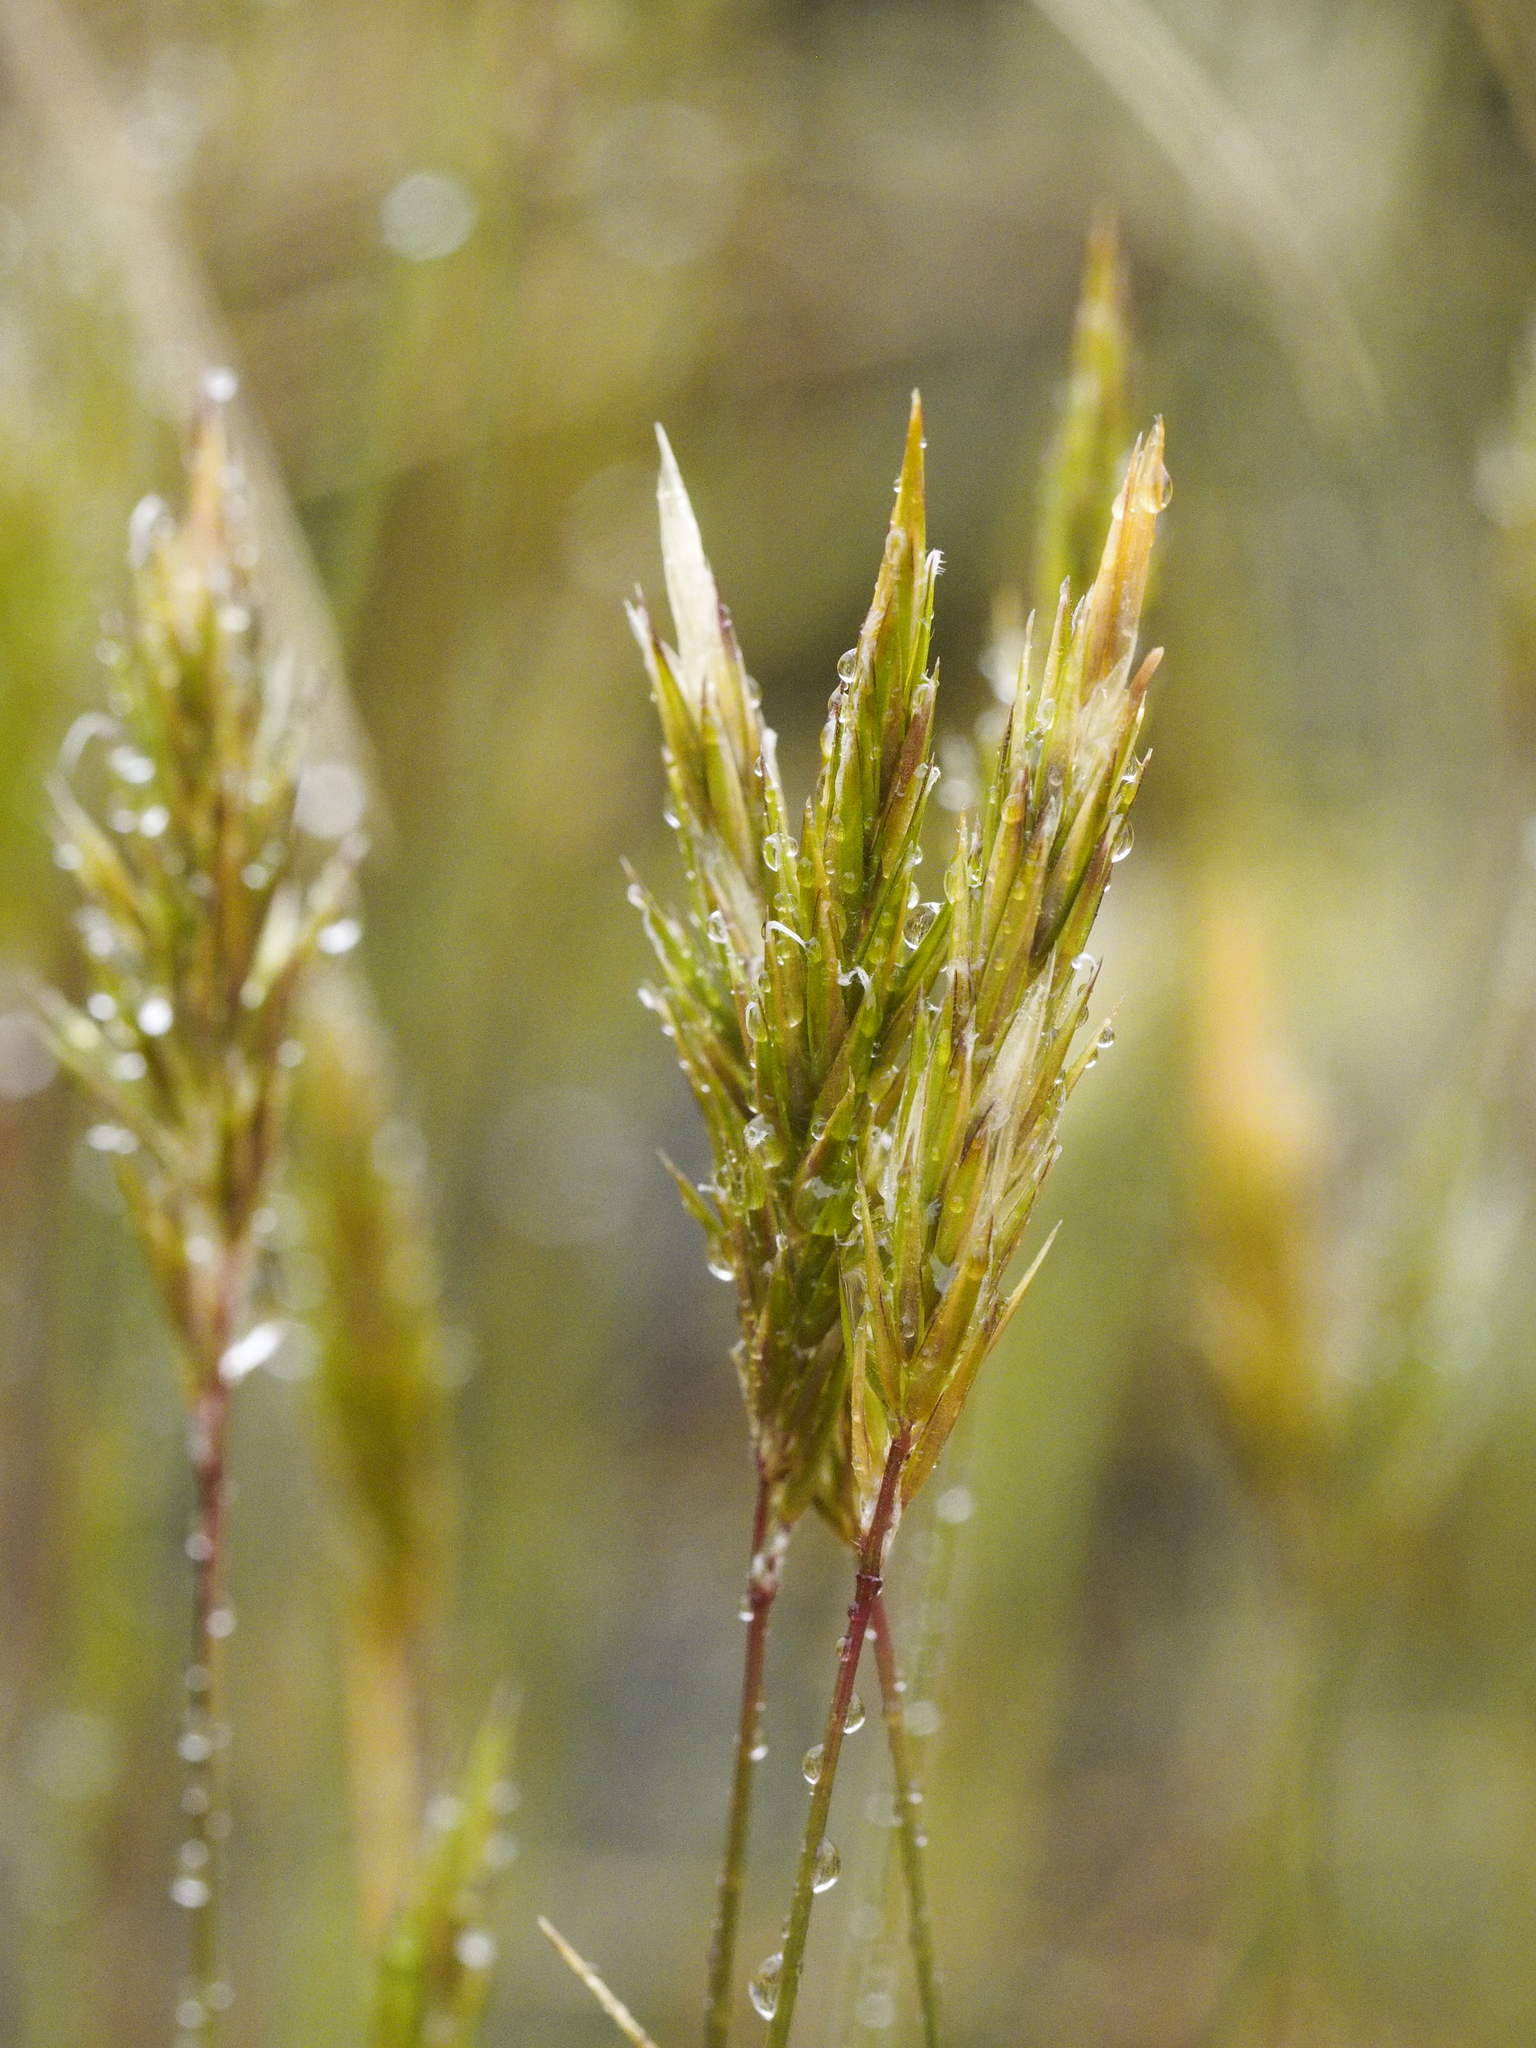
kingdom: Plantae
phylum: Tracheophyta
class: Liliopsida
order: Poales
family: Poaceae
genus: Anthoxanthum
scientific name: Anthoxanthum odoratum
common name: Sweet vernalgrass
